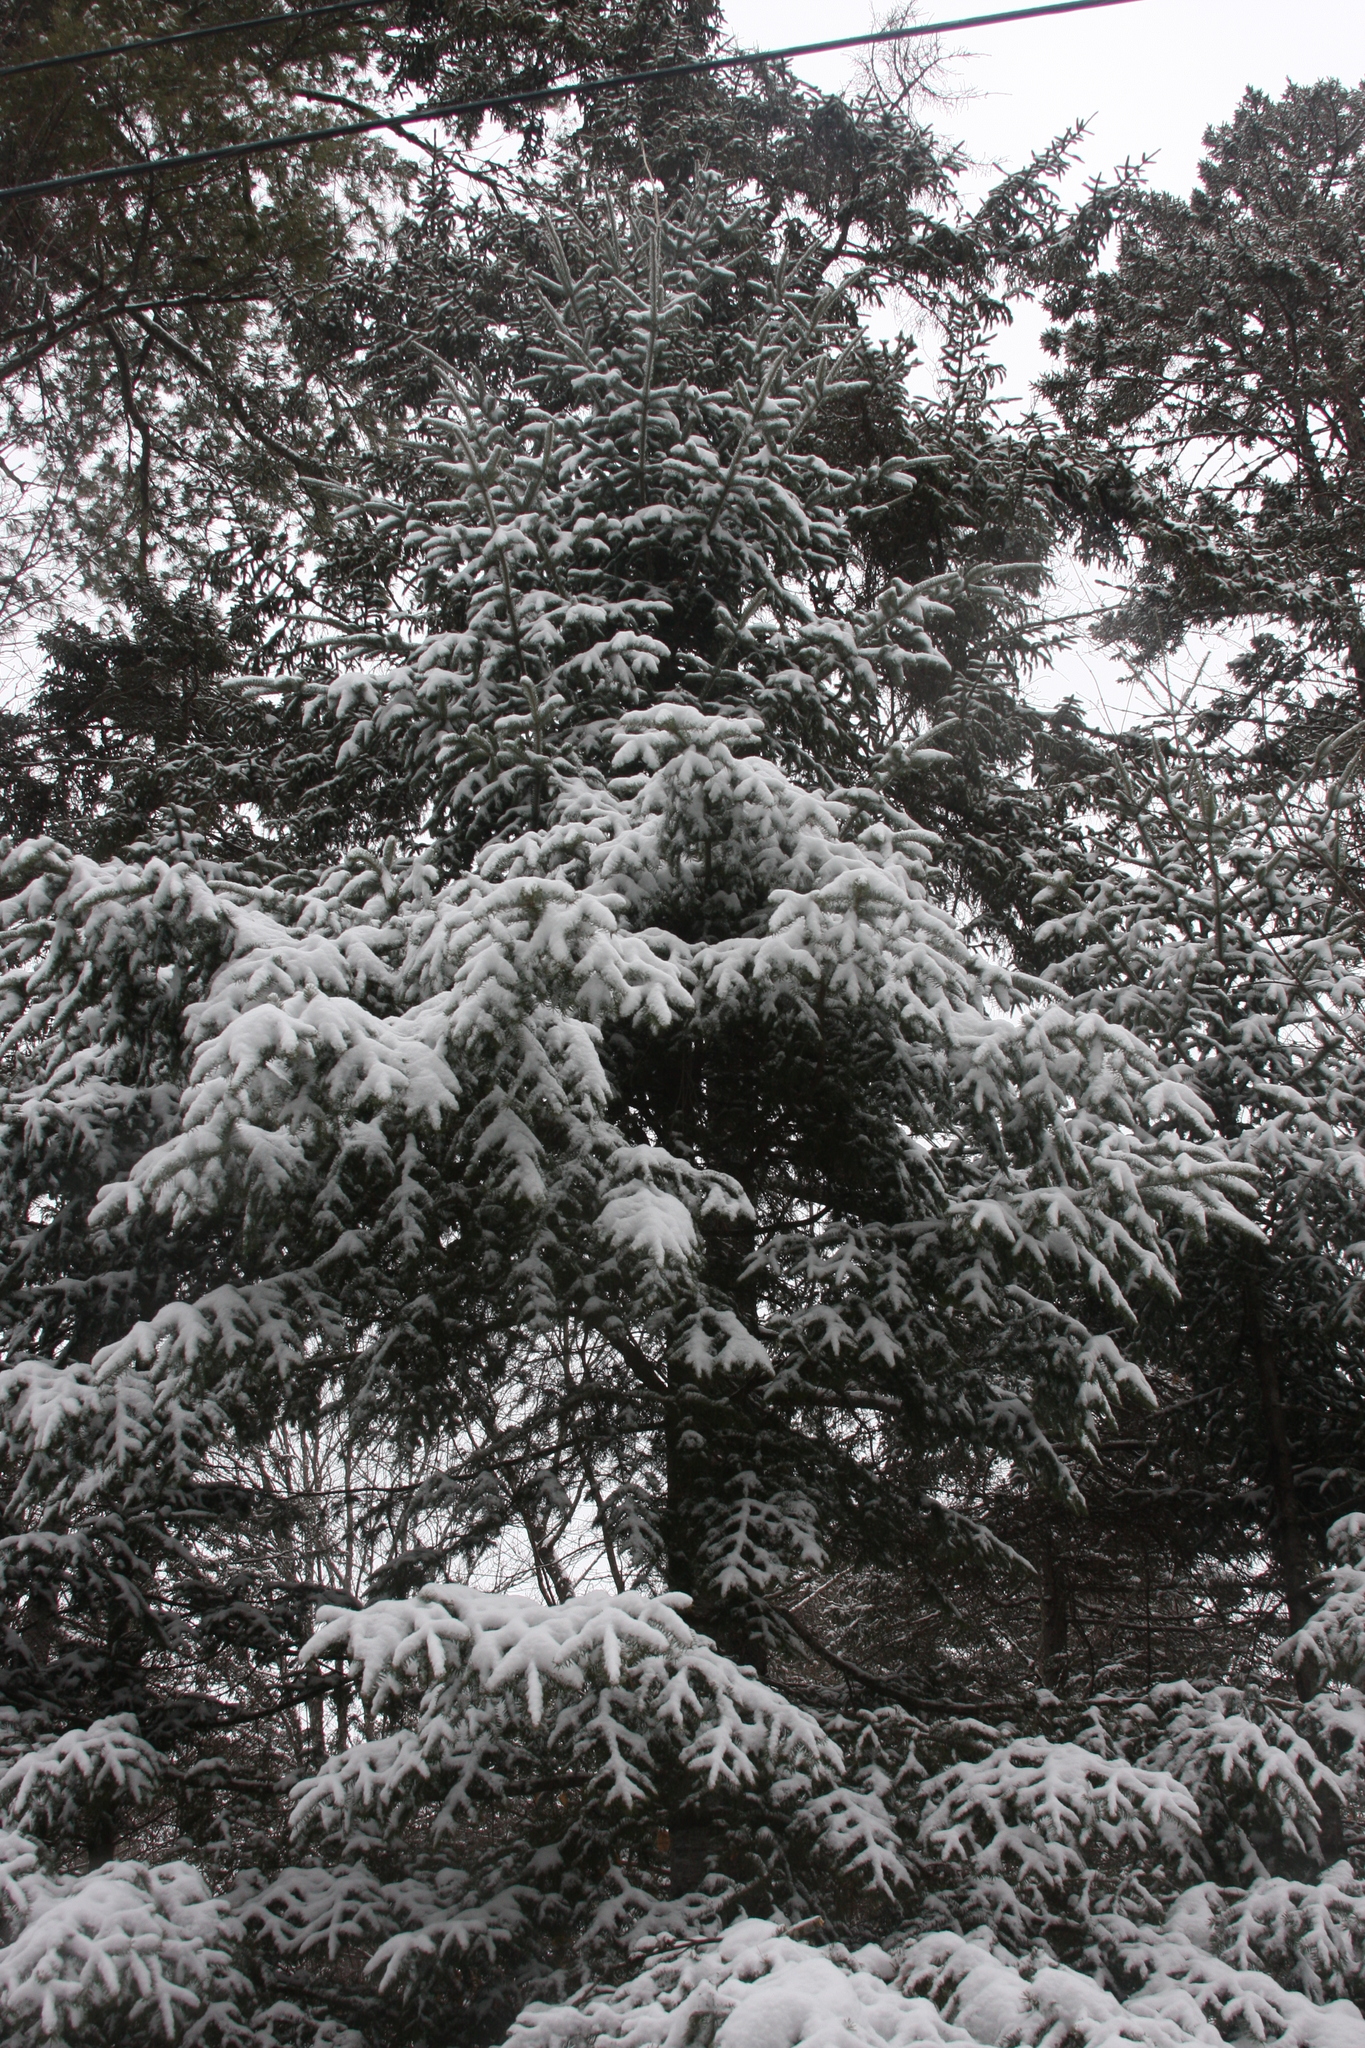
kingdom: Plantae
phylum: Tracheophyta
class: Pinopsida
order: Pinales
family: Pinaceae
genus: Abies
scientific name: Abies balsamea
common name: Balsam fir
